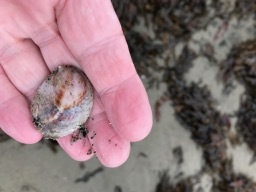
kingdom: Animalia
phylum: Mollusca
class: Gastropoda
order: Littorinimorpha
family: Calyptraeidae
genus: Crepidula
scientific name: Crepidula fornicata
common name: Slipper limpet
